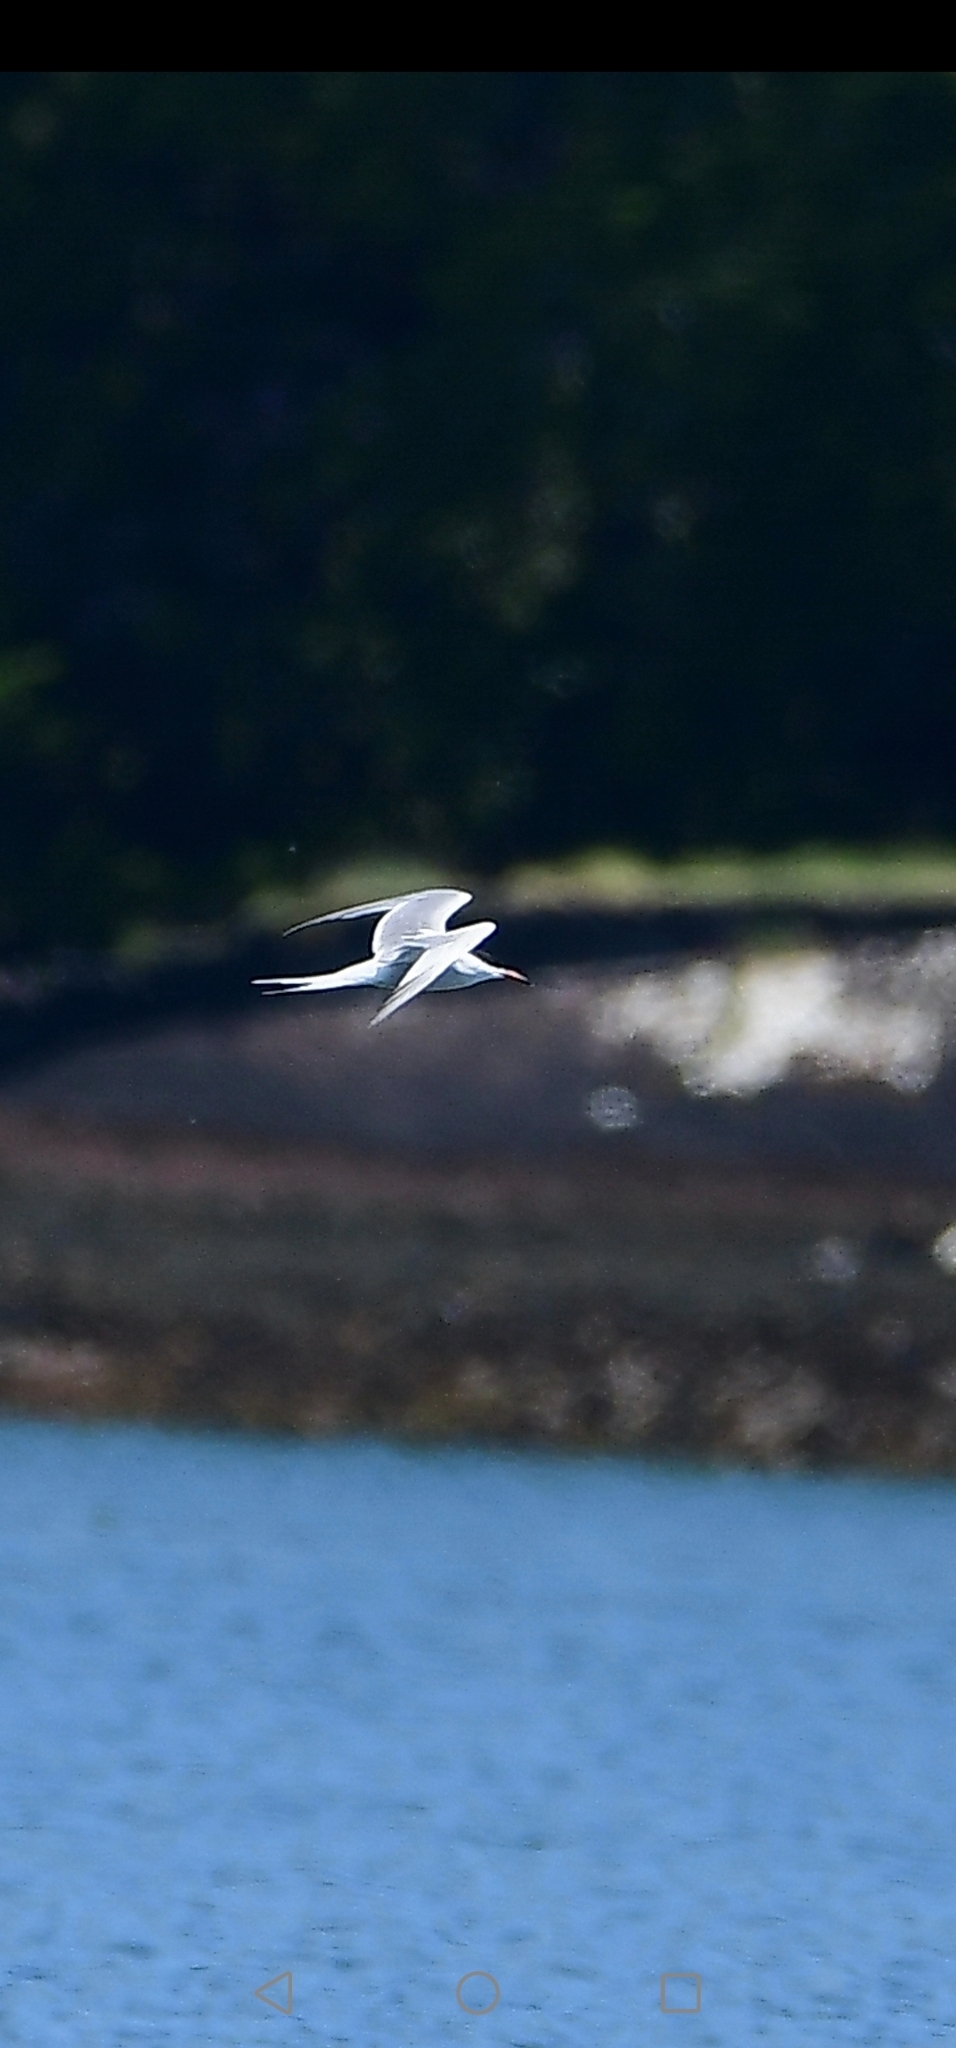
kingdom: Animalia
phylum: Chordata
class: Aves
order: Charadriiformes
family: Laridae
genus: Sterna
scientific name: Sterna hirundo
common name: Common tern
